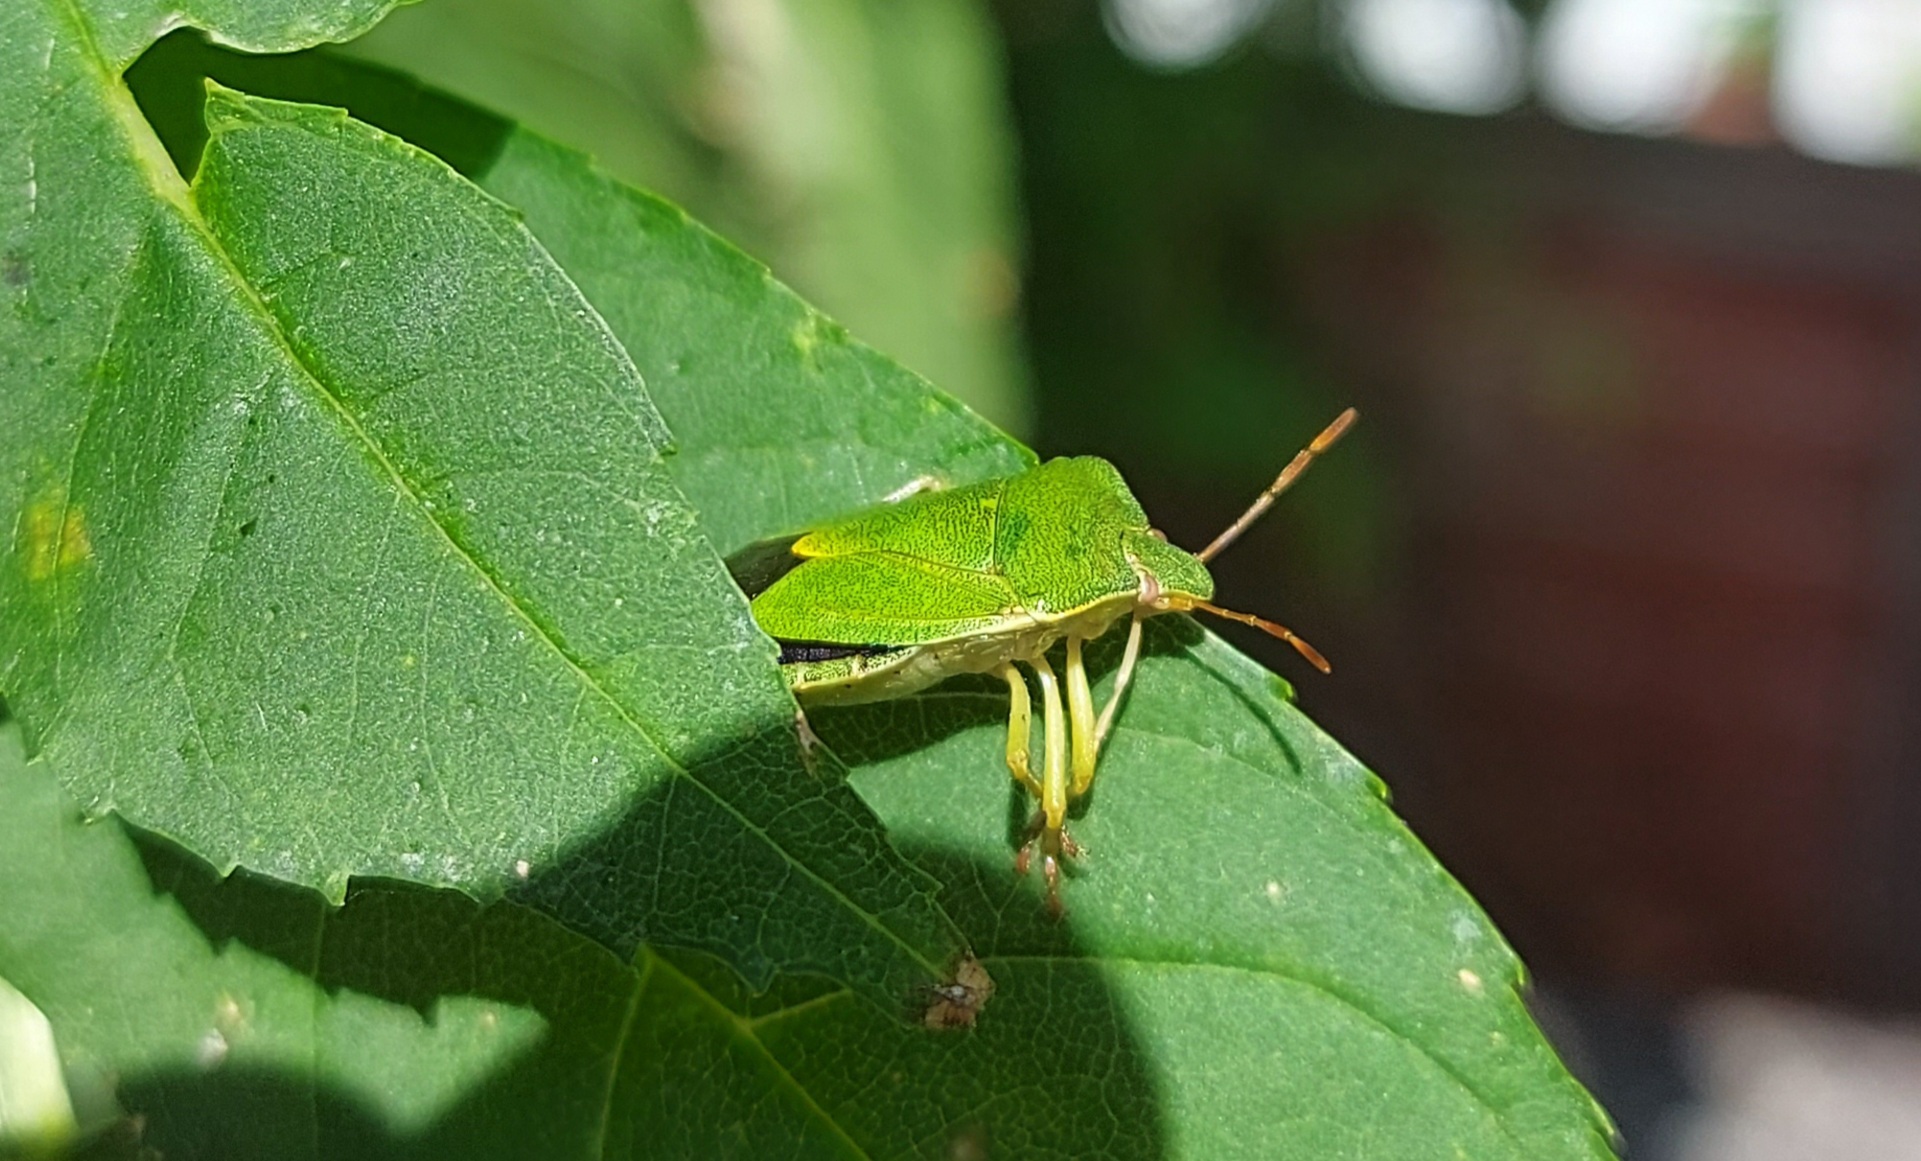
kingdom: Animalia
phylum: Arthropoda
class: Insecta
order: Hemiptera
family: Pentatomidae
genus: Palomena
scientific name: Palomena prasina
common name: Green shieldbug
